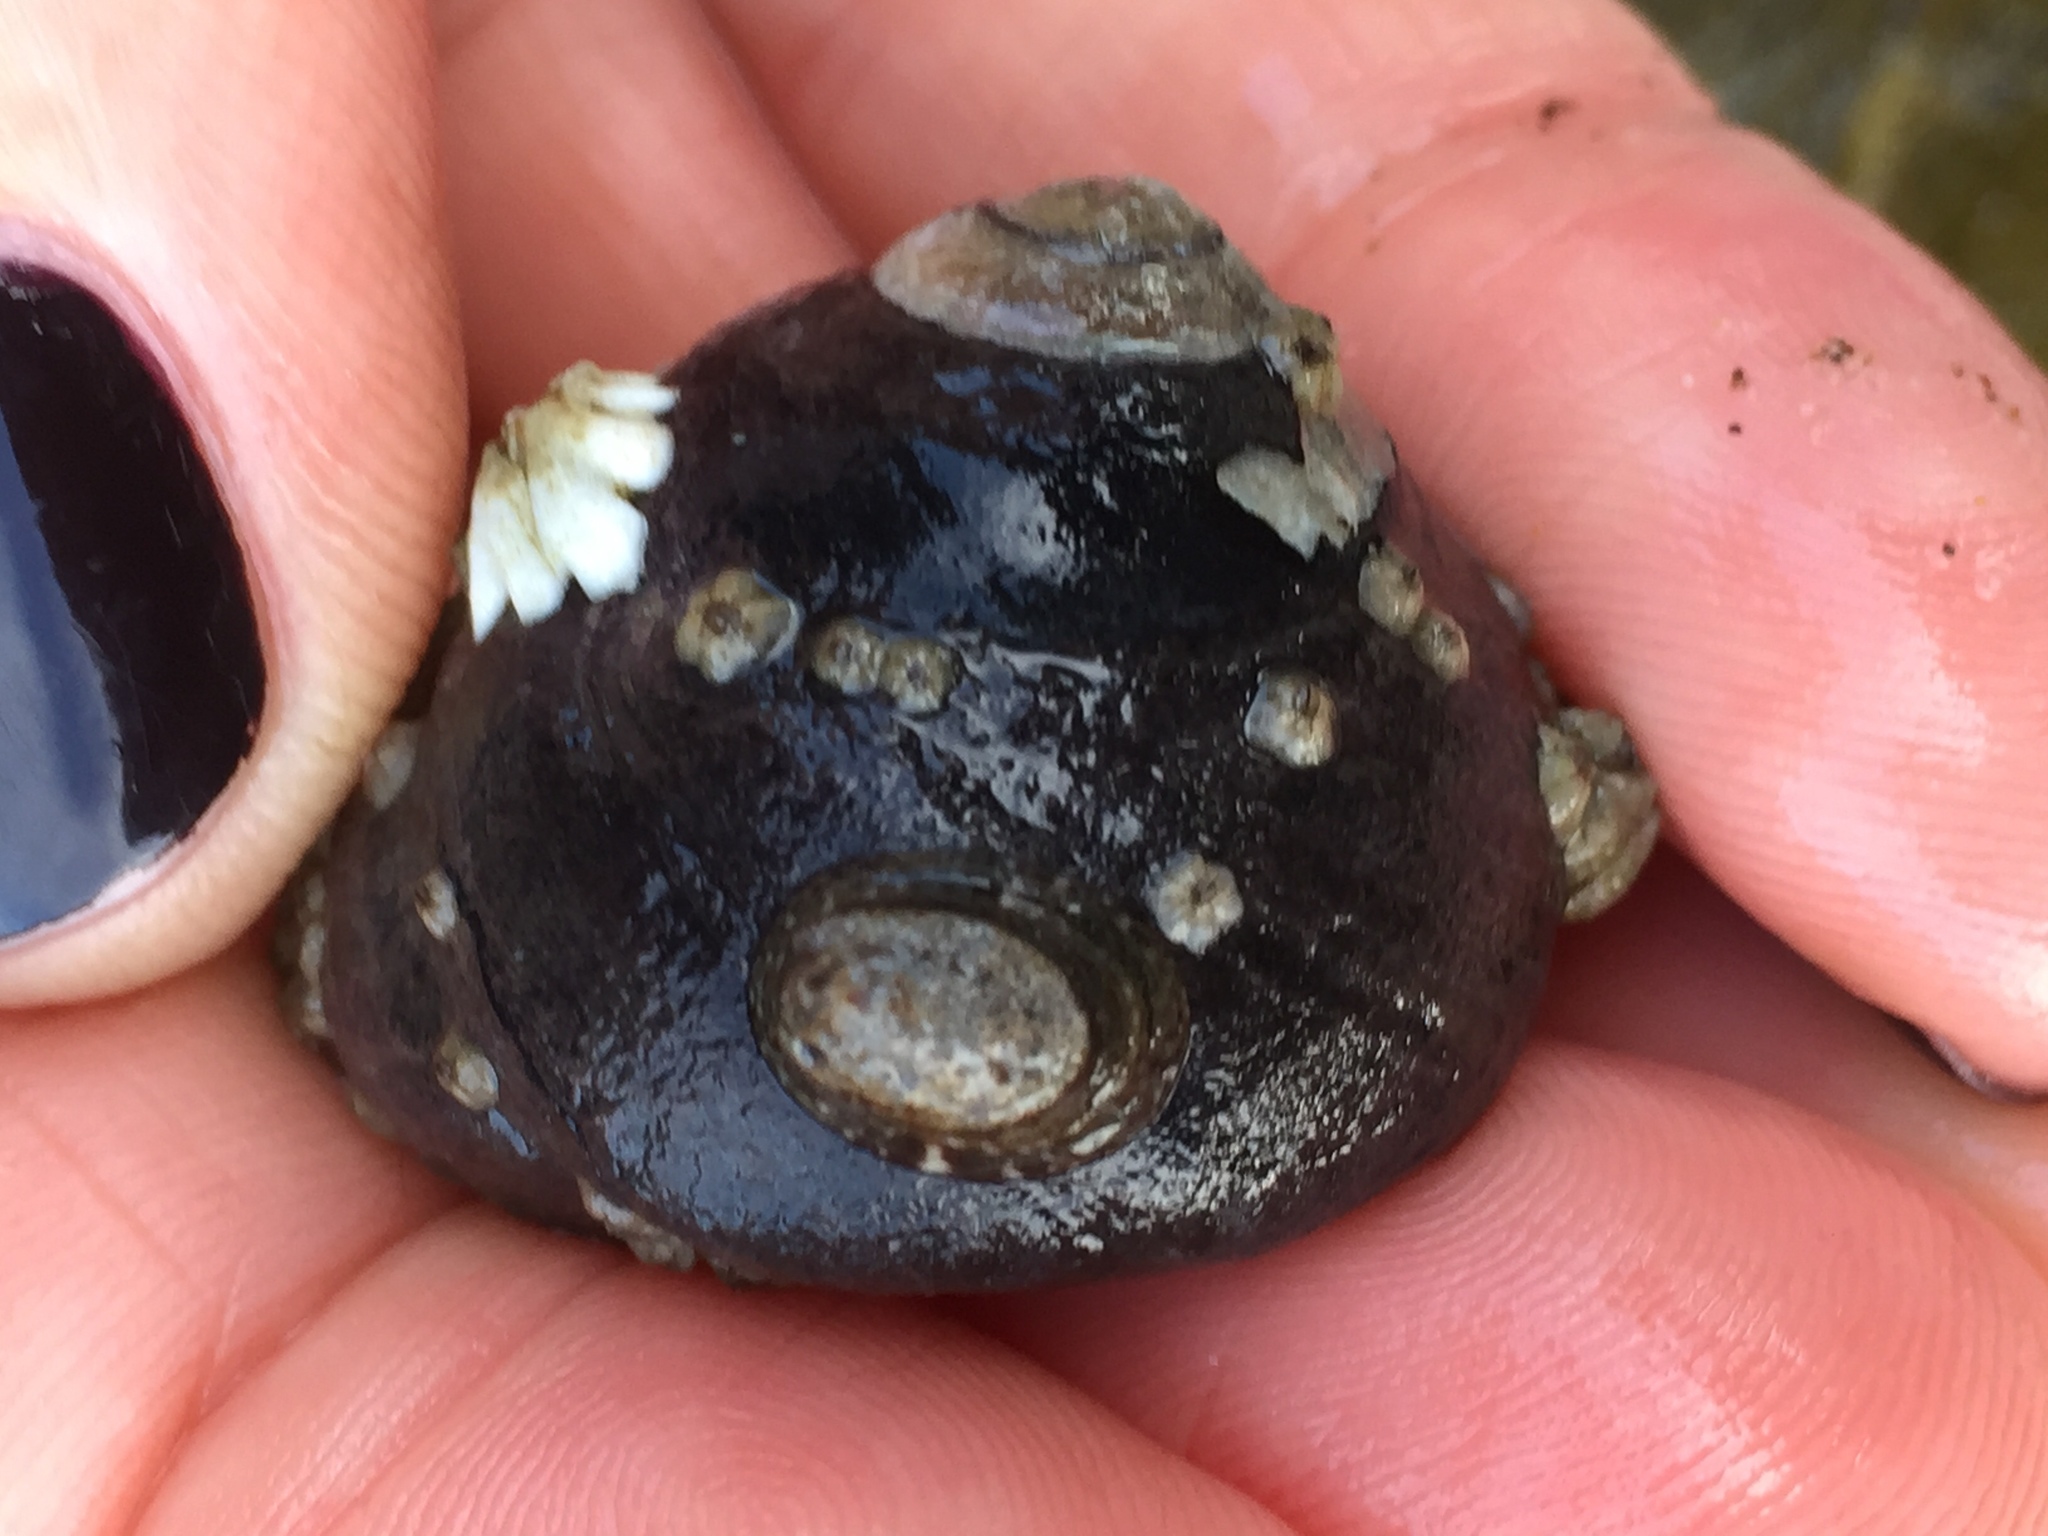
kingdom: Animalia
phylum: Mollusca
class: Gastropoda
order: Trochida
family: Tegulidae
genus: Tegula
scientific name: Tegula funebralis
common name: Black tegula
